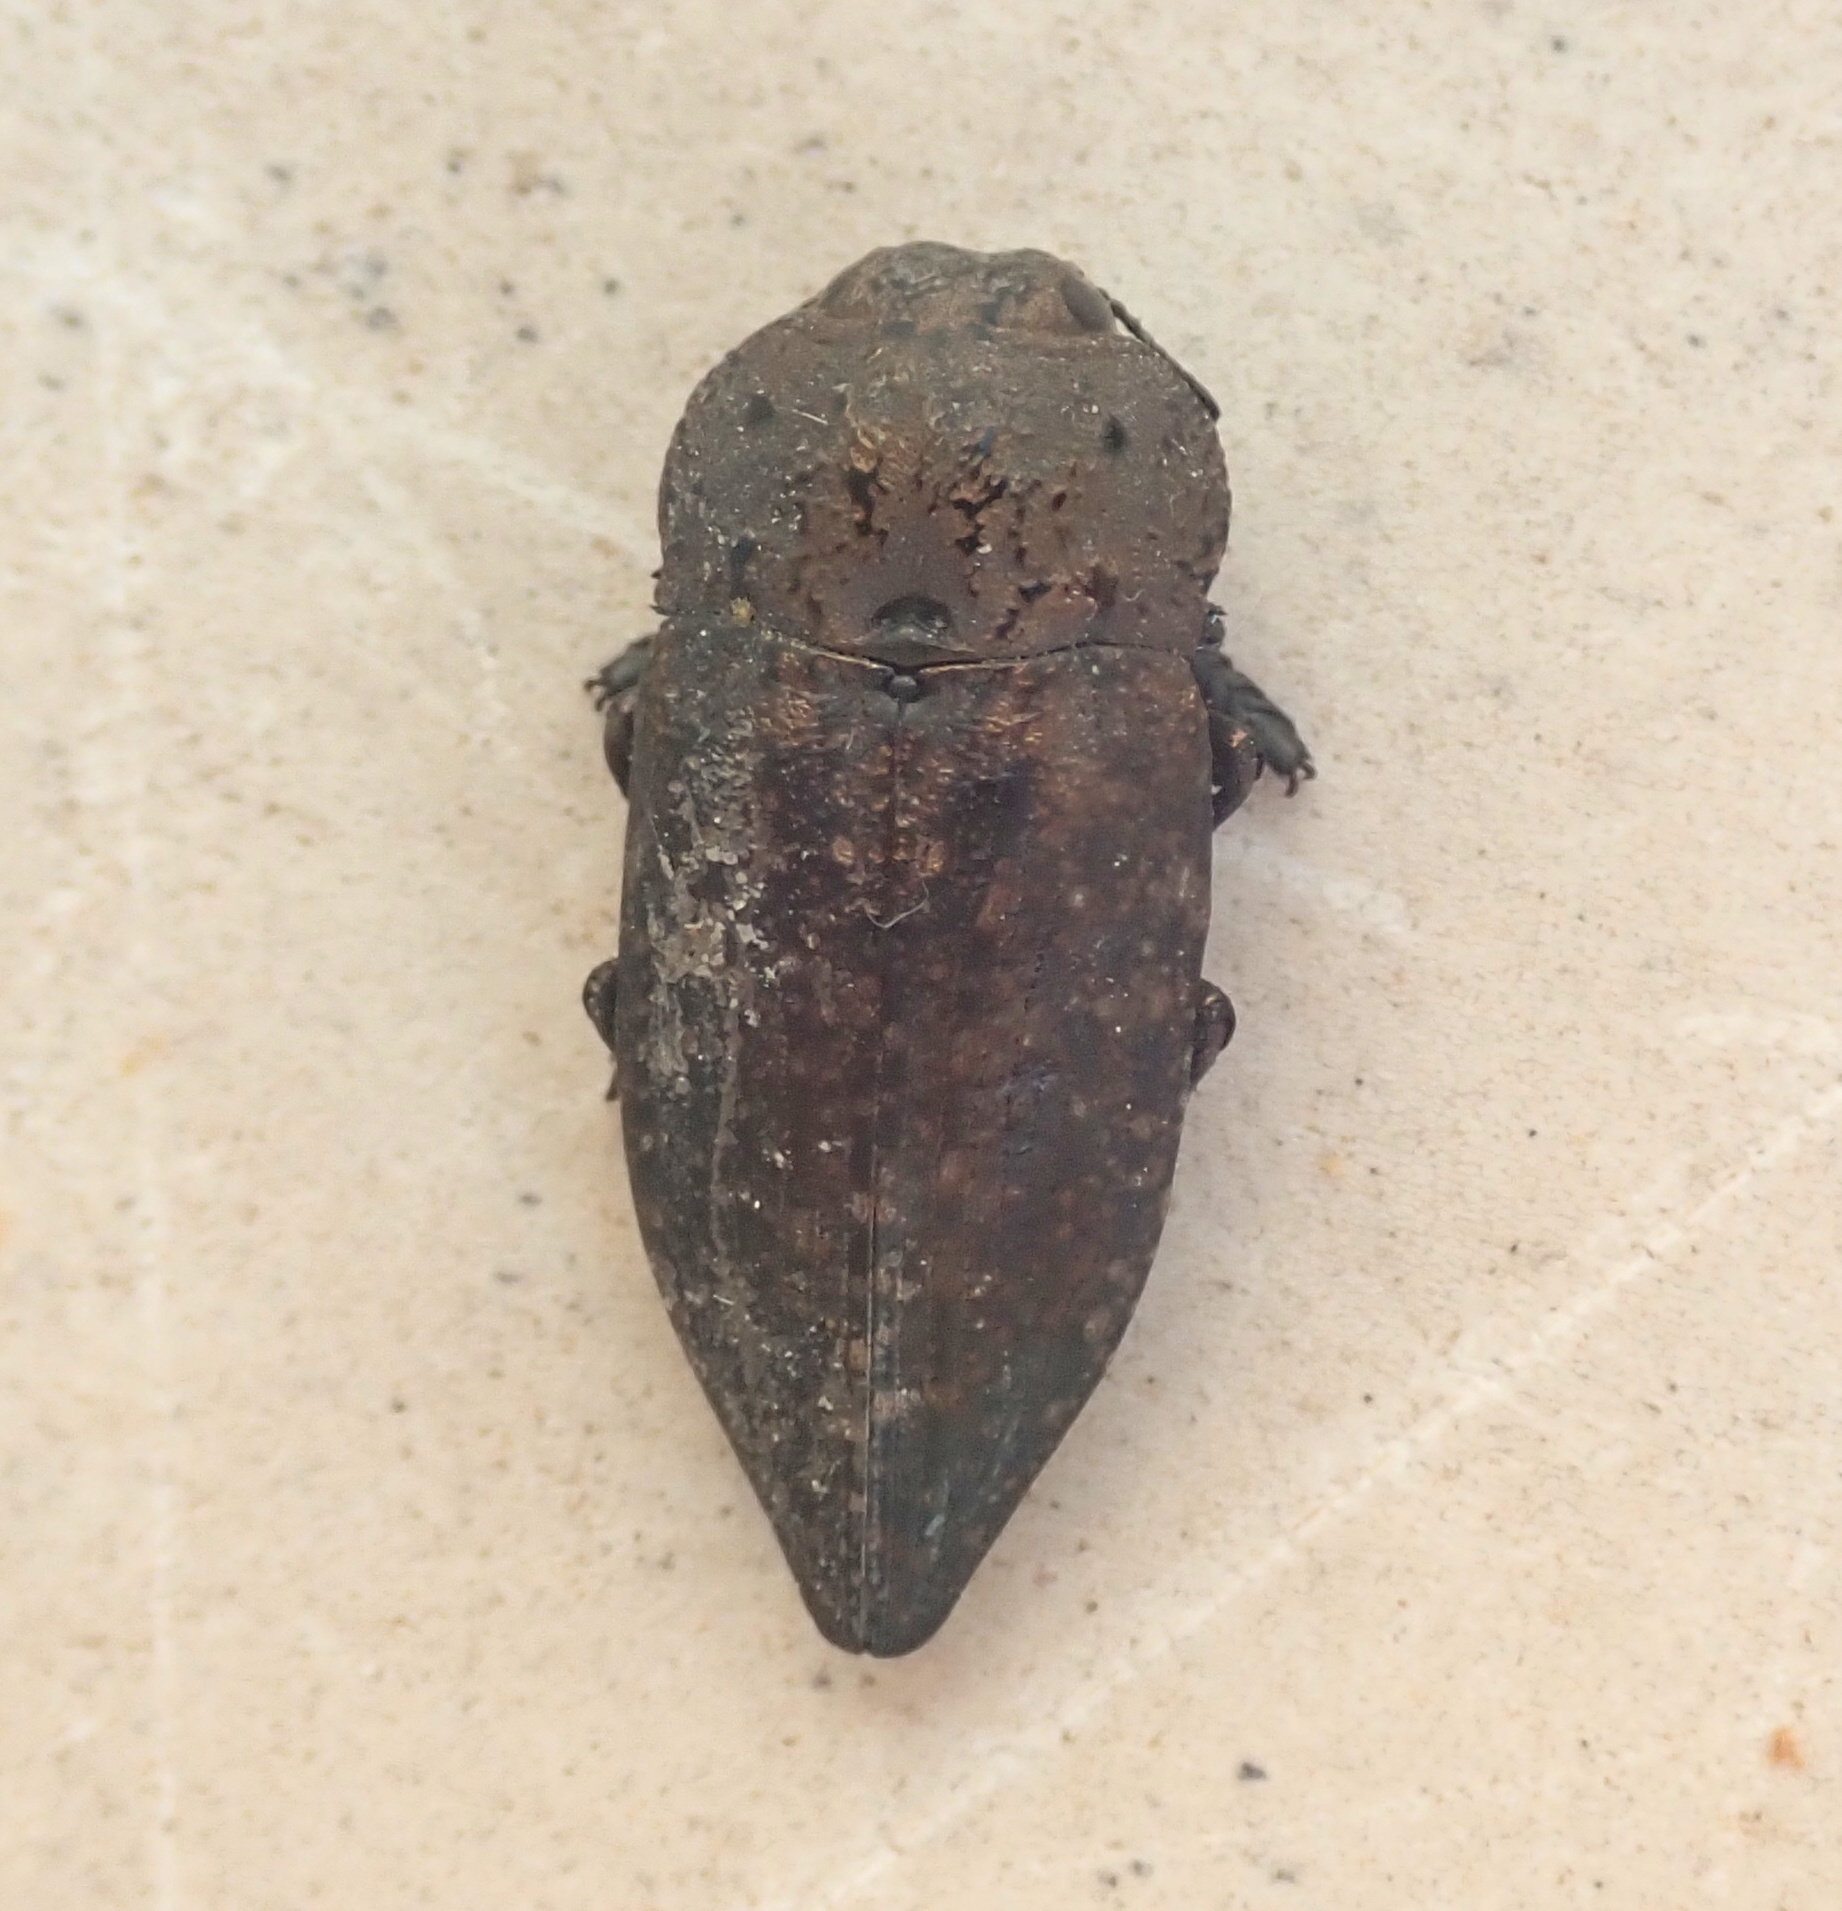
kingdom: Animalia
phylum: Arthropoda
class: Insecta
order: Coleoptera
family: Buprestidae
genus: Capnodis
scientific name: Capnodis tenebricosa
